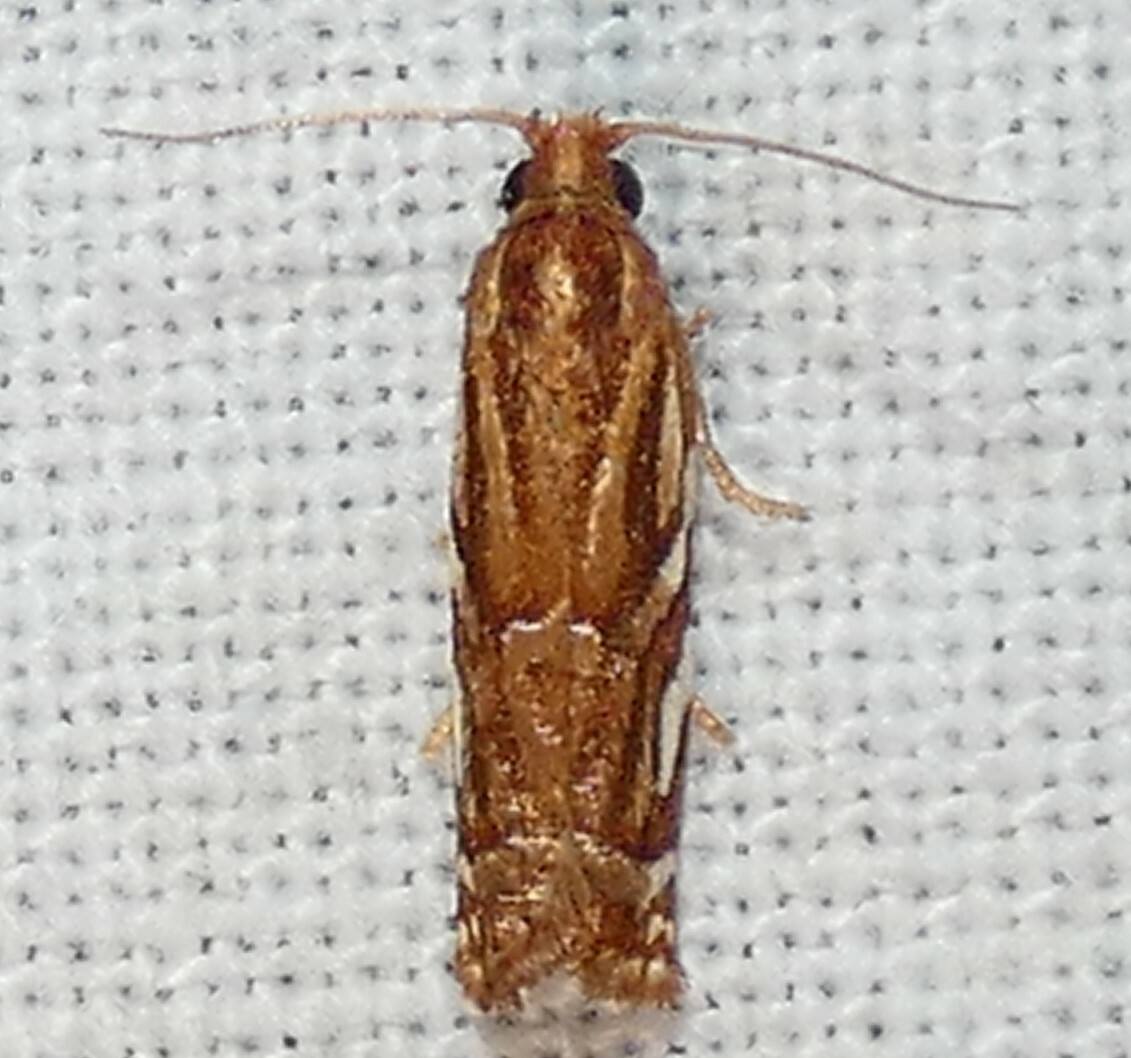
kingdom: Animalia
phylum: Arthropoda
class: Insecta
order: Lepidoptera
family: Tortricidae
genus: Choristoneura
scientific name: Choristoneura argentifasciata
